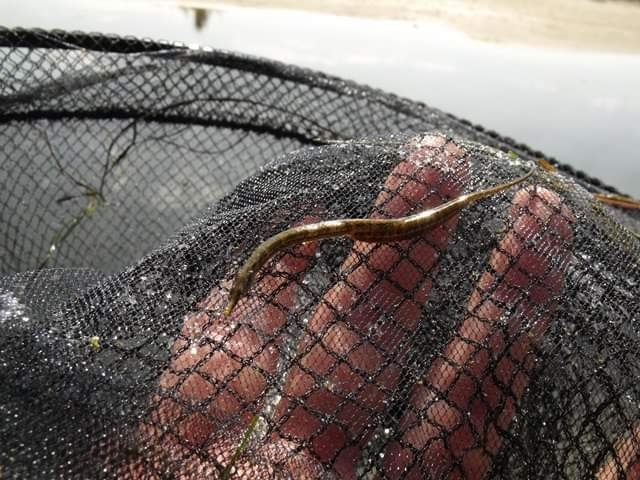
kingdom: Animalia
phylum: Chordata
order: Syngnathiformes
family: Syngnathidae
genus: Syngnathus
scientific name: Syngnathus abaster
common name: Black-striped pipefish
